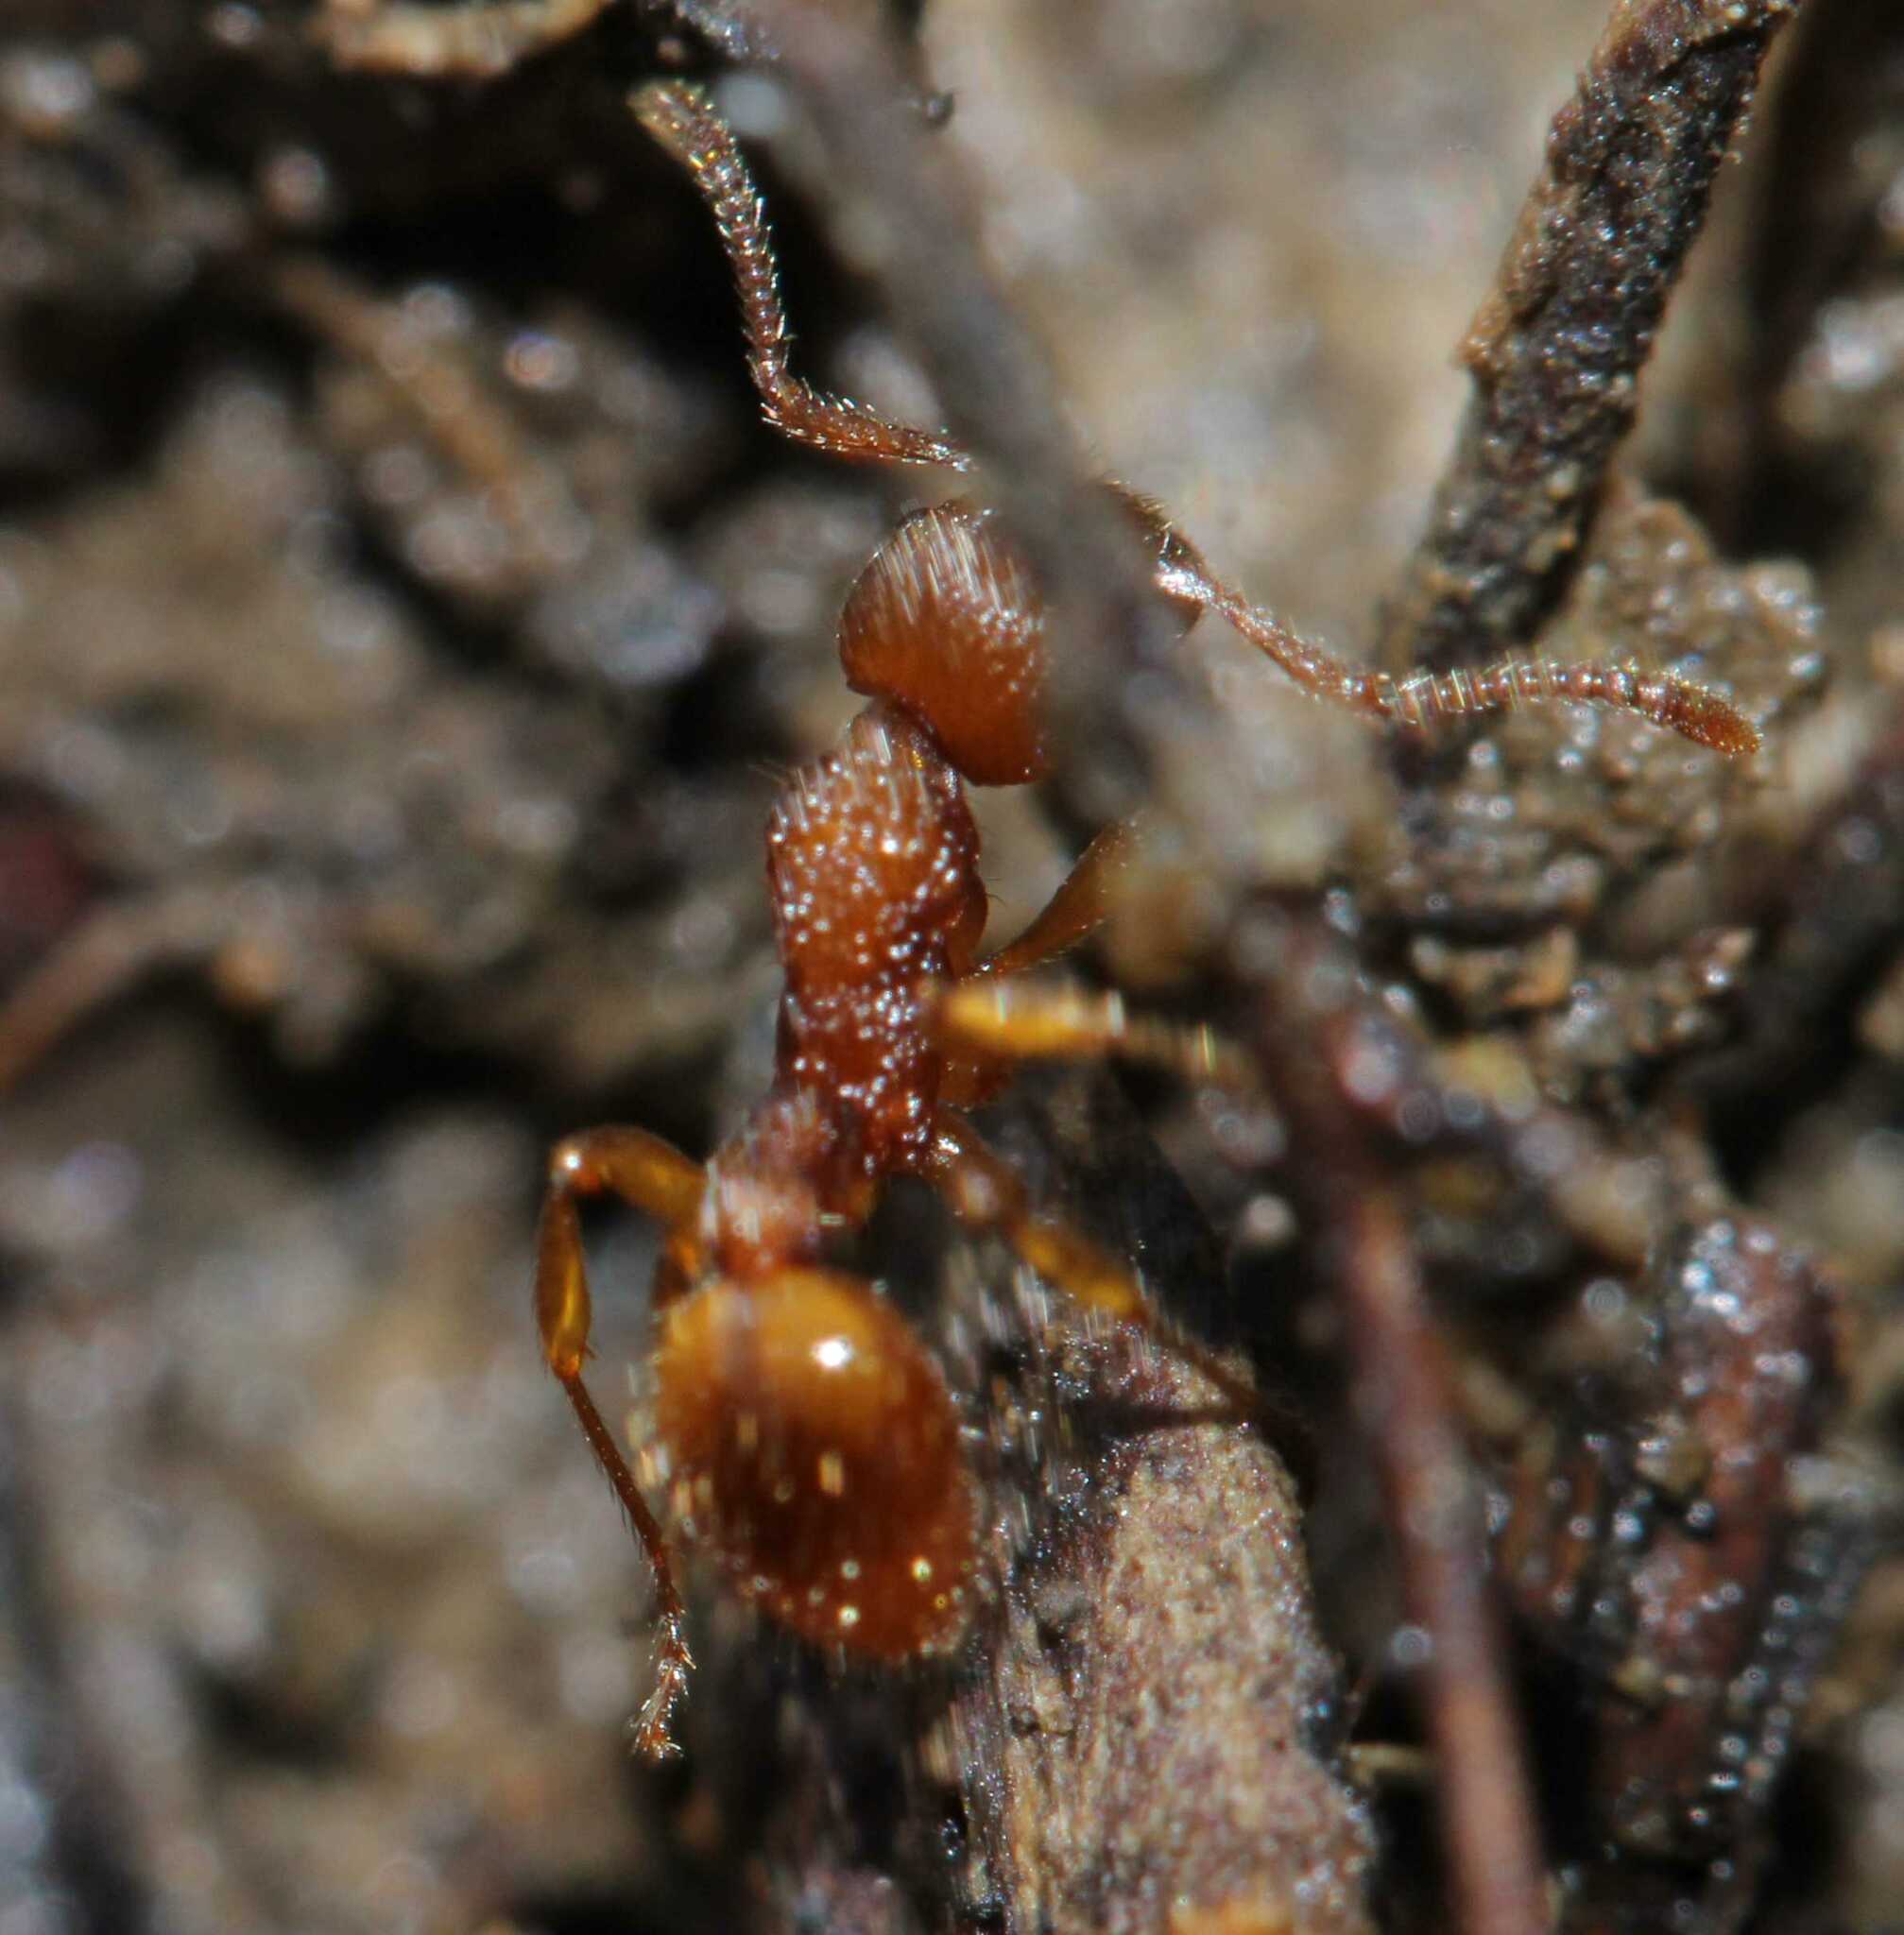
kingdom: Animalia
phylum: Arthropoda
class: Insecta
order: Hymenoptera
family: Formicidae
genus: Myrmica
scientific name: Myrmica sabuleti
